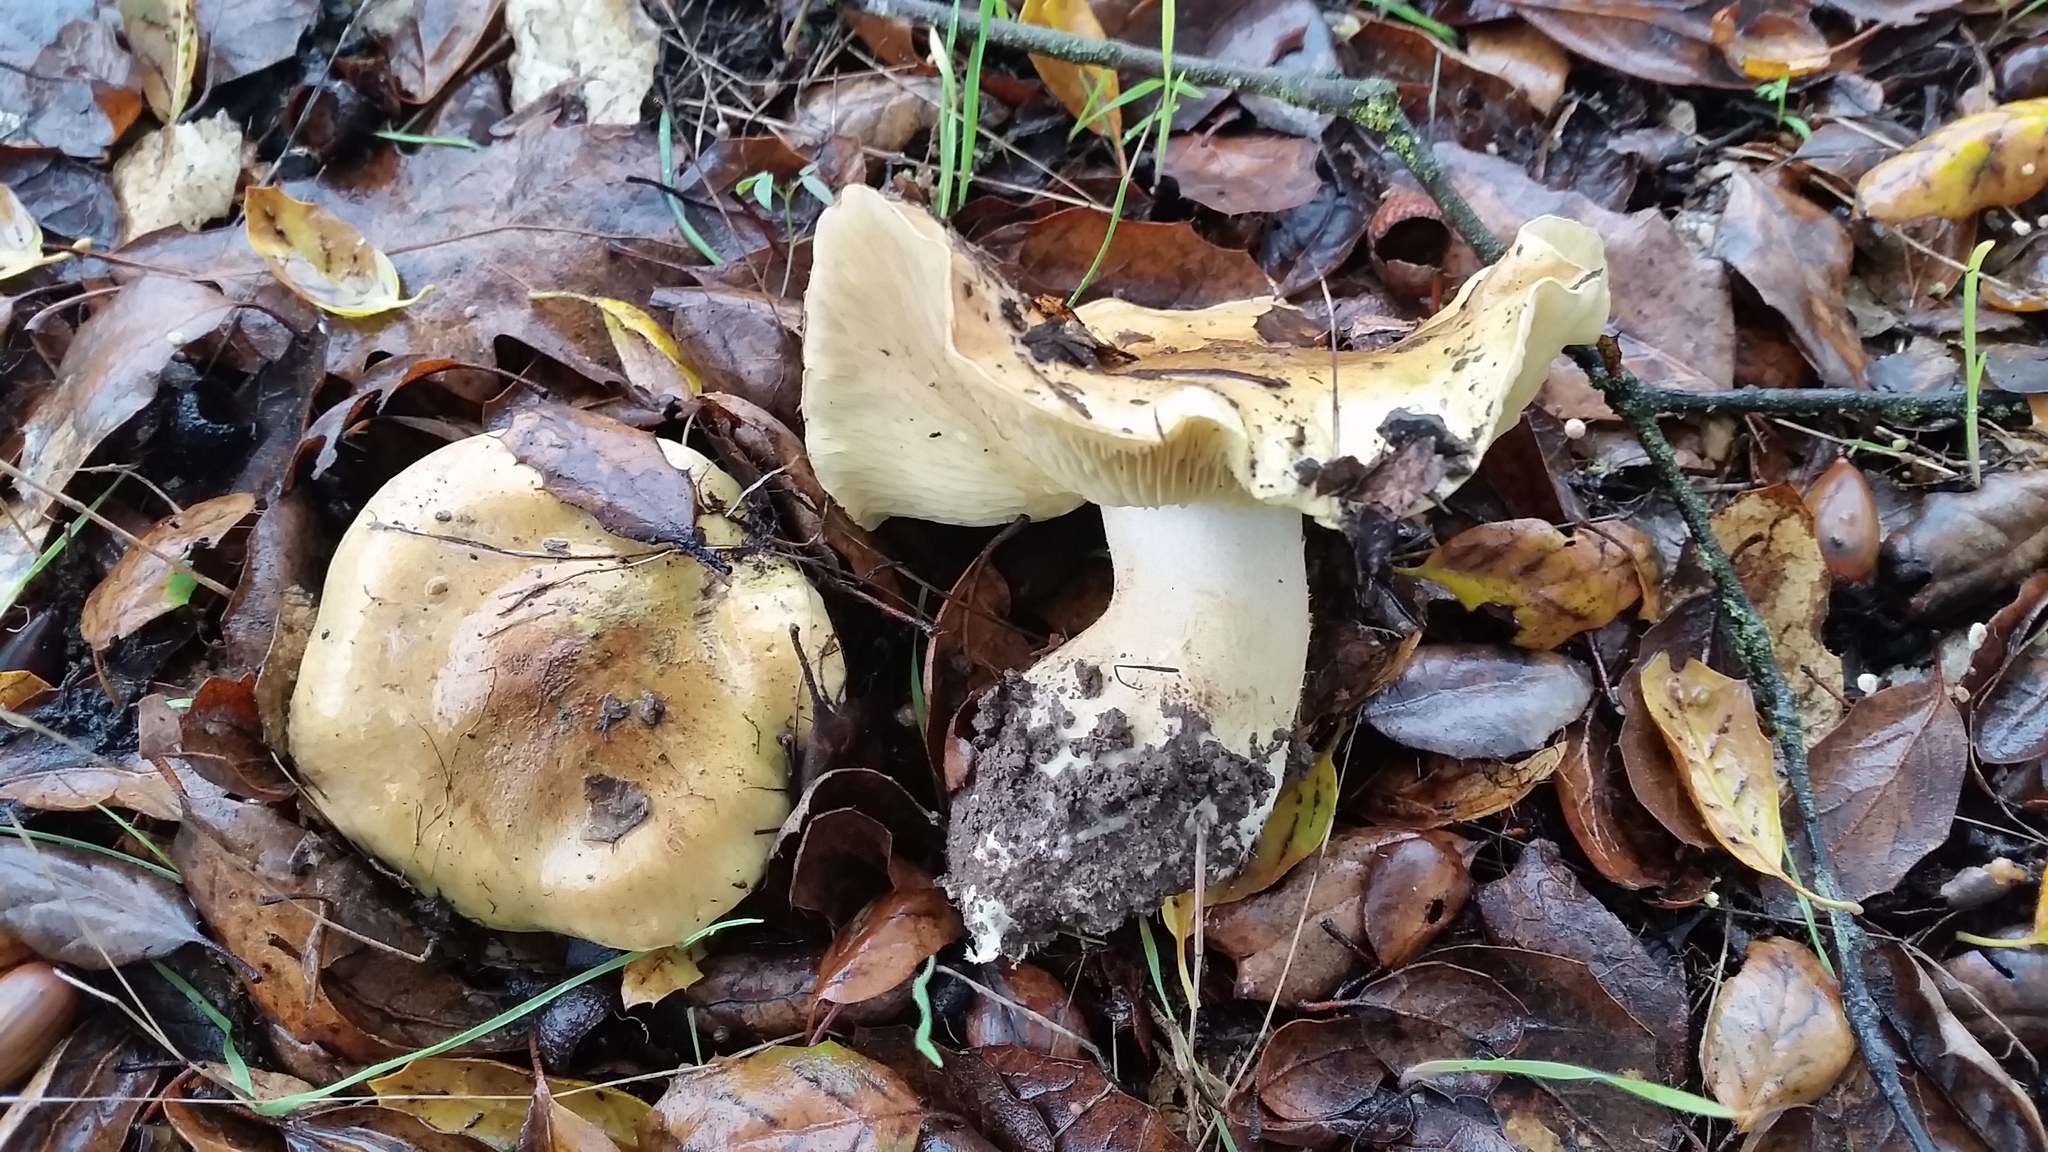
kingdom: Fungi
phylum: Basidiomycota
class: Agaricomycetes
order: Agaricales
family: Tricholomataceae
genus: Tricholoma
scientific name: Tricholoma equestre
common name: Yellow knight
